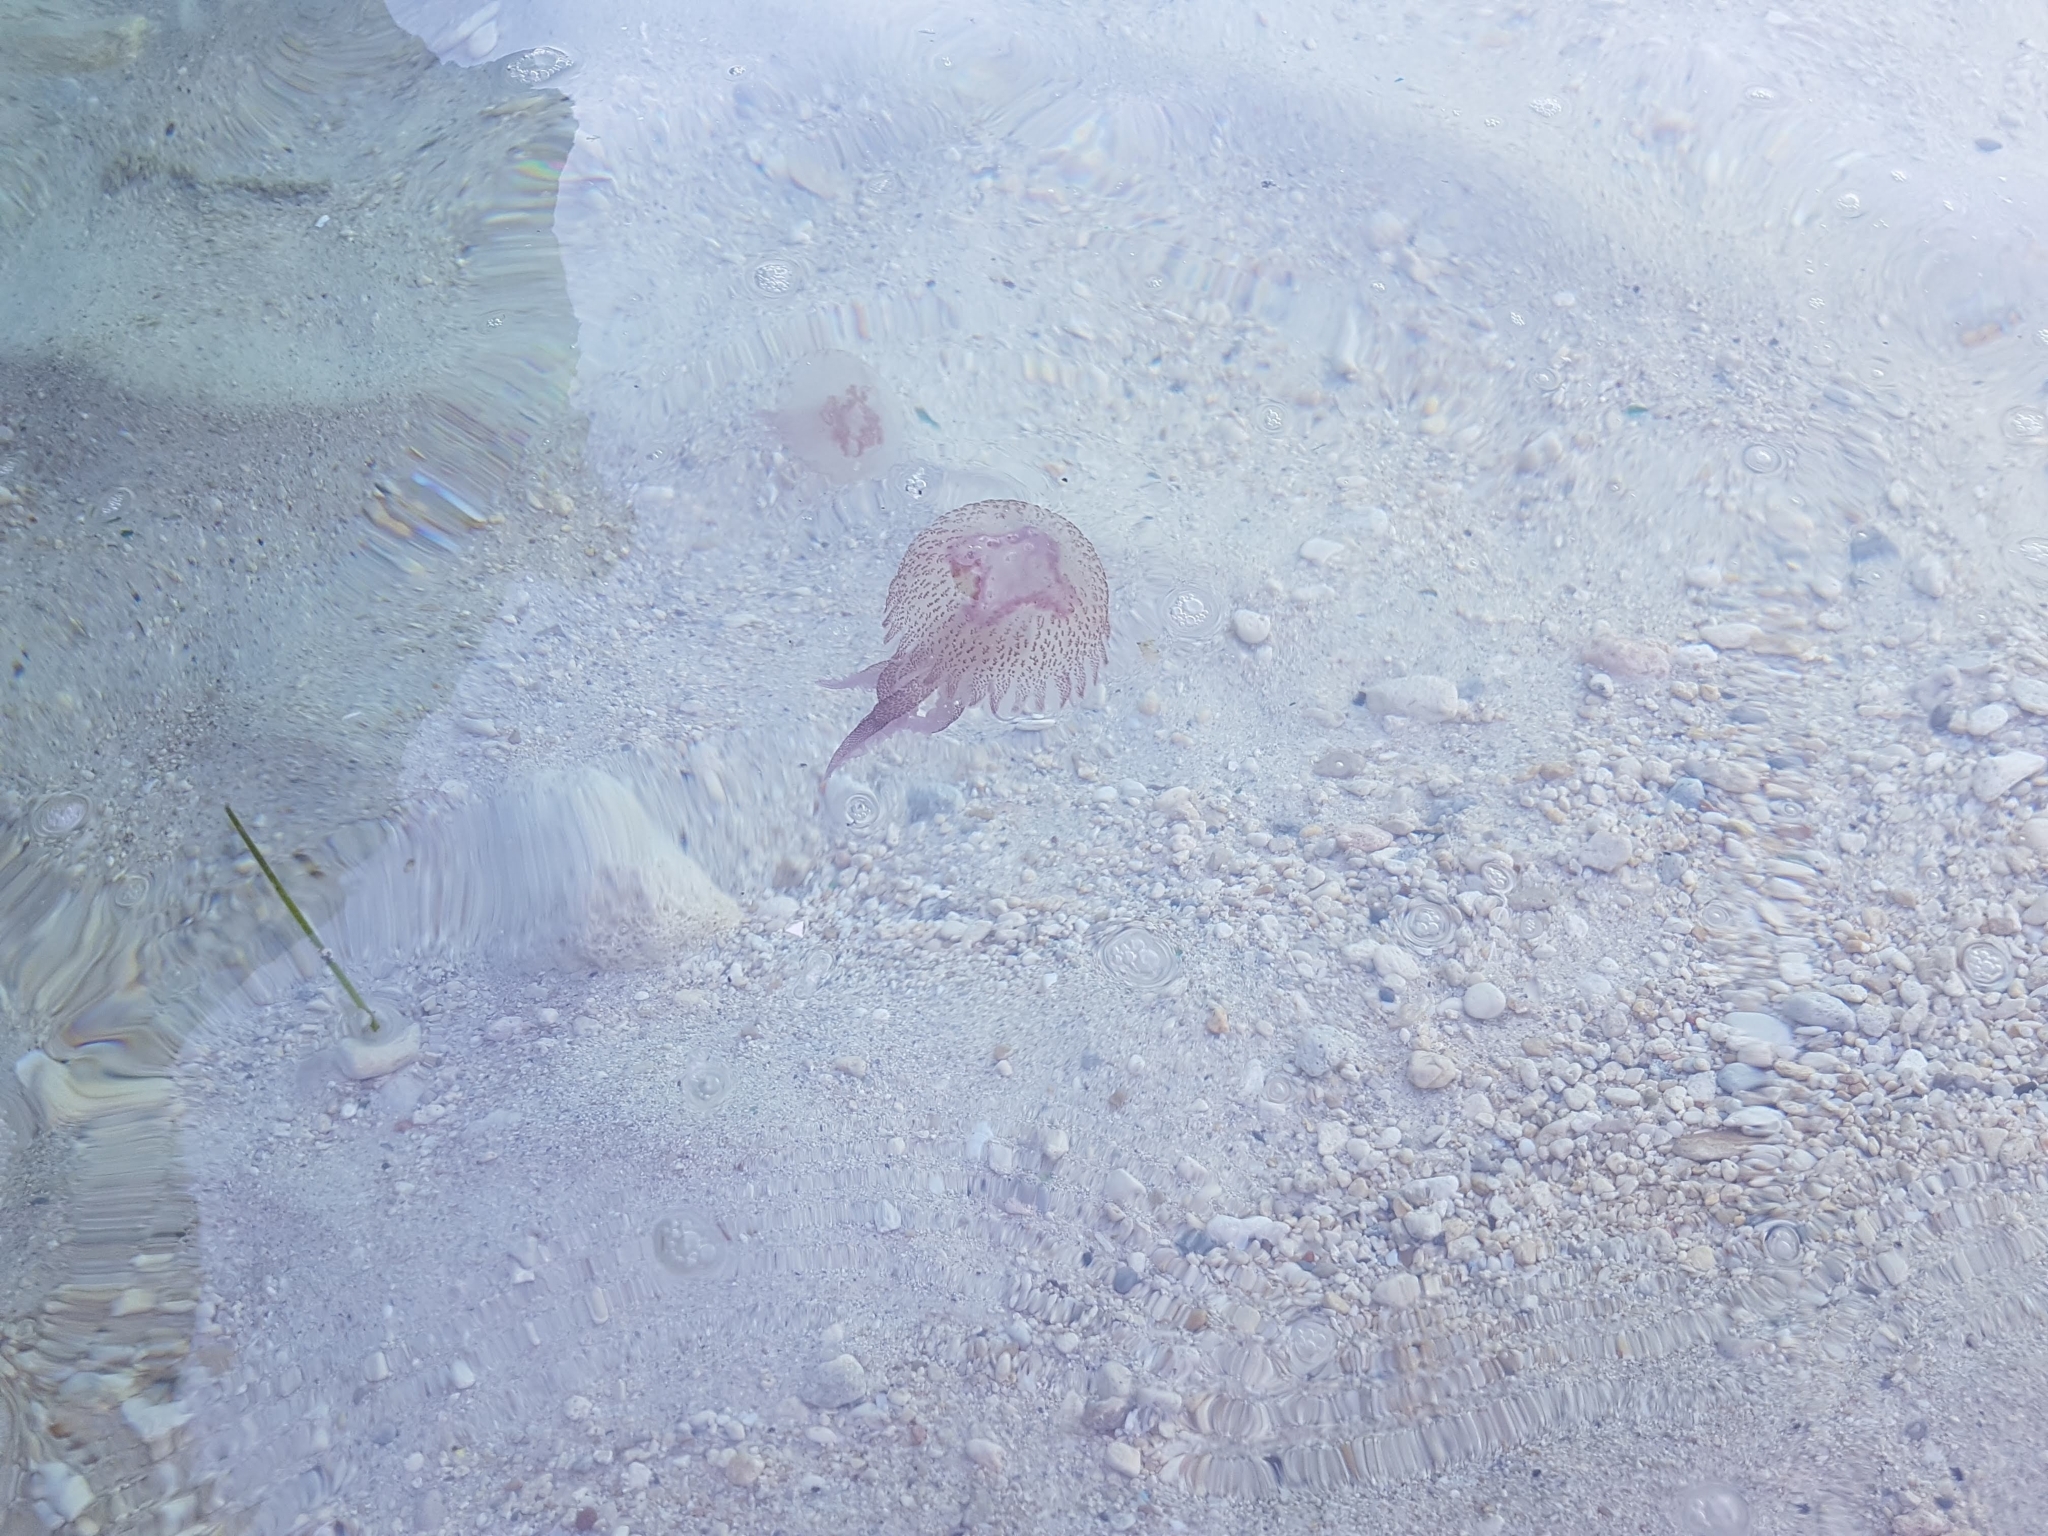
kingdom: Animalia
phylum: Cnidaria
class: Scyphozoa
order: Semaeostomeae
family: Pelagiidae
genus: Pelagia
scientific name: Pelagia noctiluca
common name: Mauve stinger
